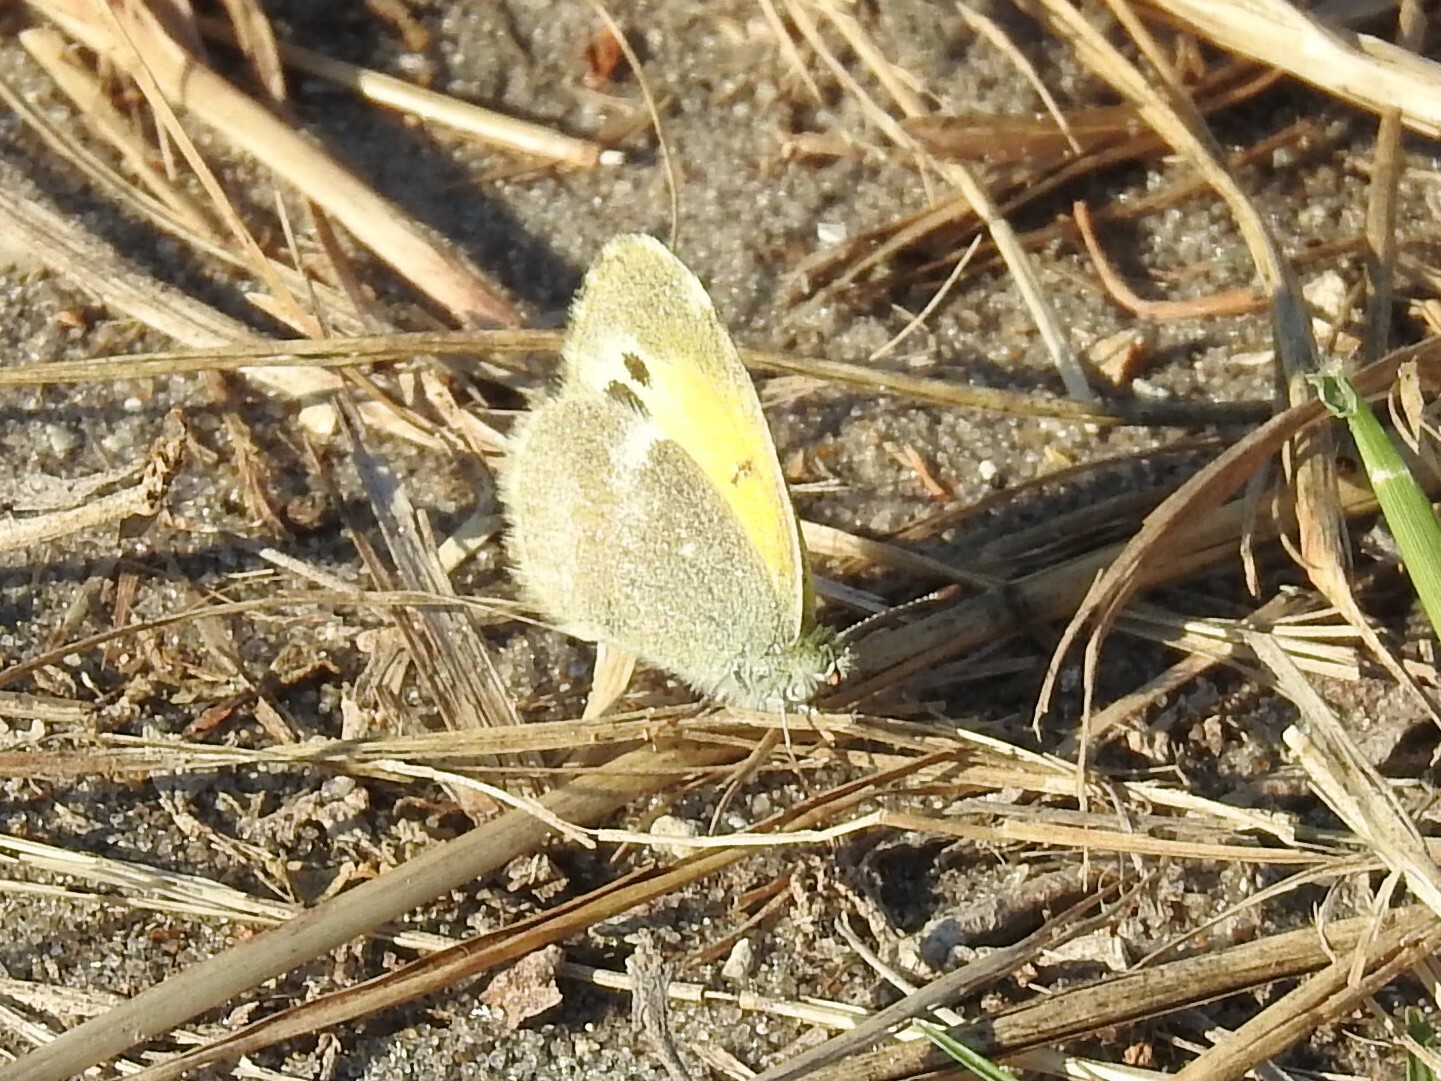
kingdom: Animalia
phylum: Arthropoda
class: Insecta
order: Lepidoptera
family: Pieridae
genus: Nathalis
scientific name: Nathalis iole
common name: Dainty sulphur
